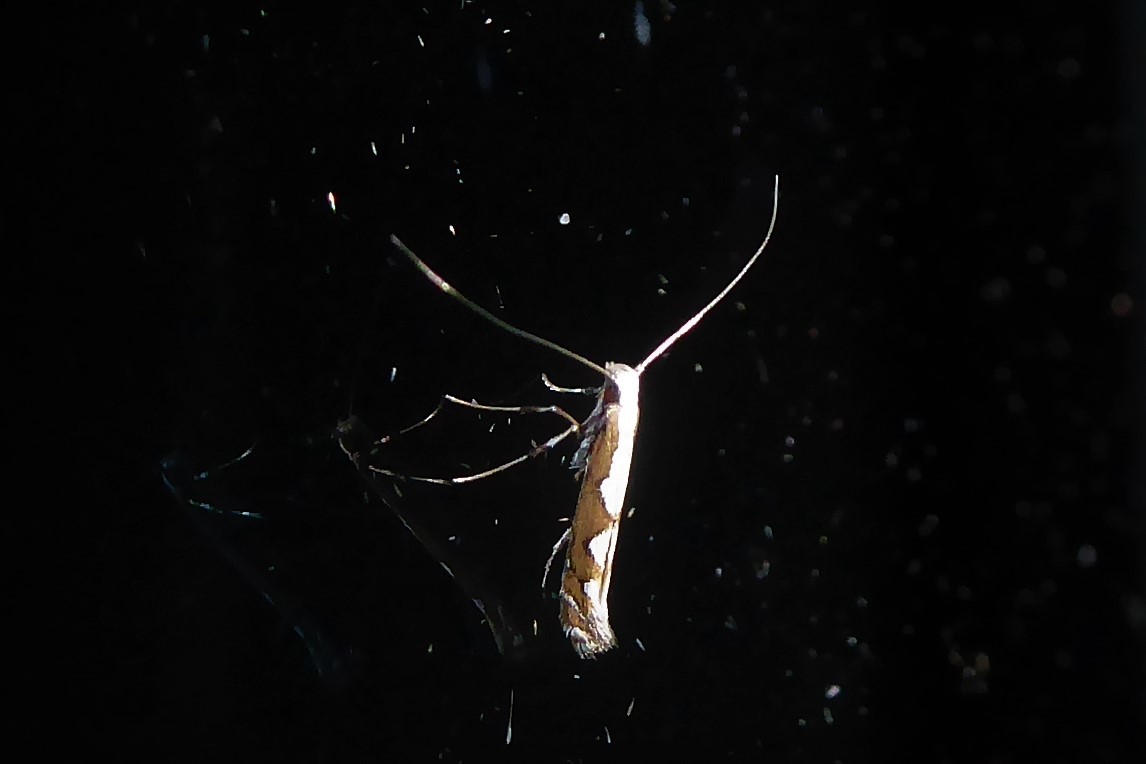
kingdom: Animalia
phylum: Arthropoda
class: Insecta
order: Lepidoptera
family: Gracillariidae
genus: Dialectica
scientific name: Dialectica scalariella
